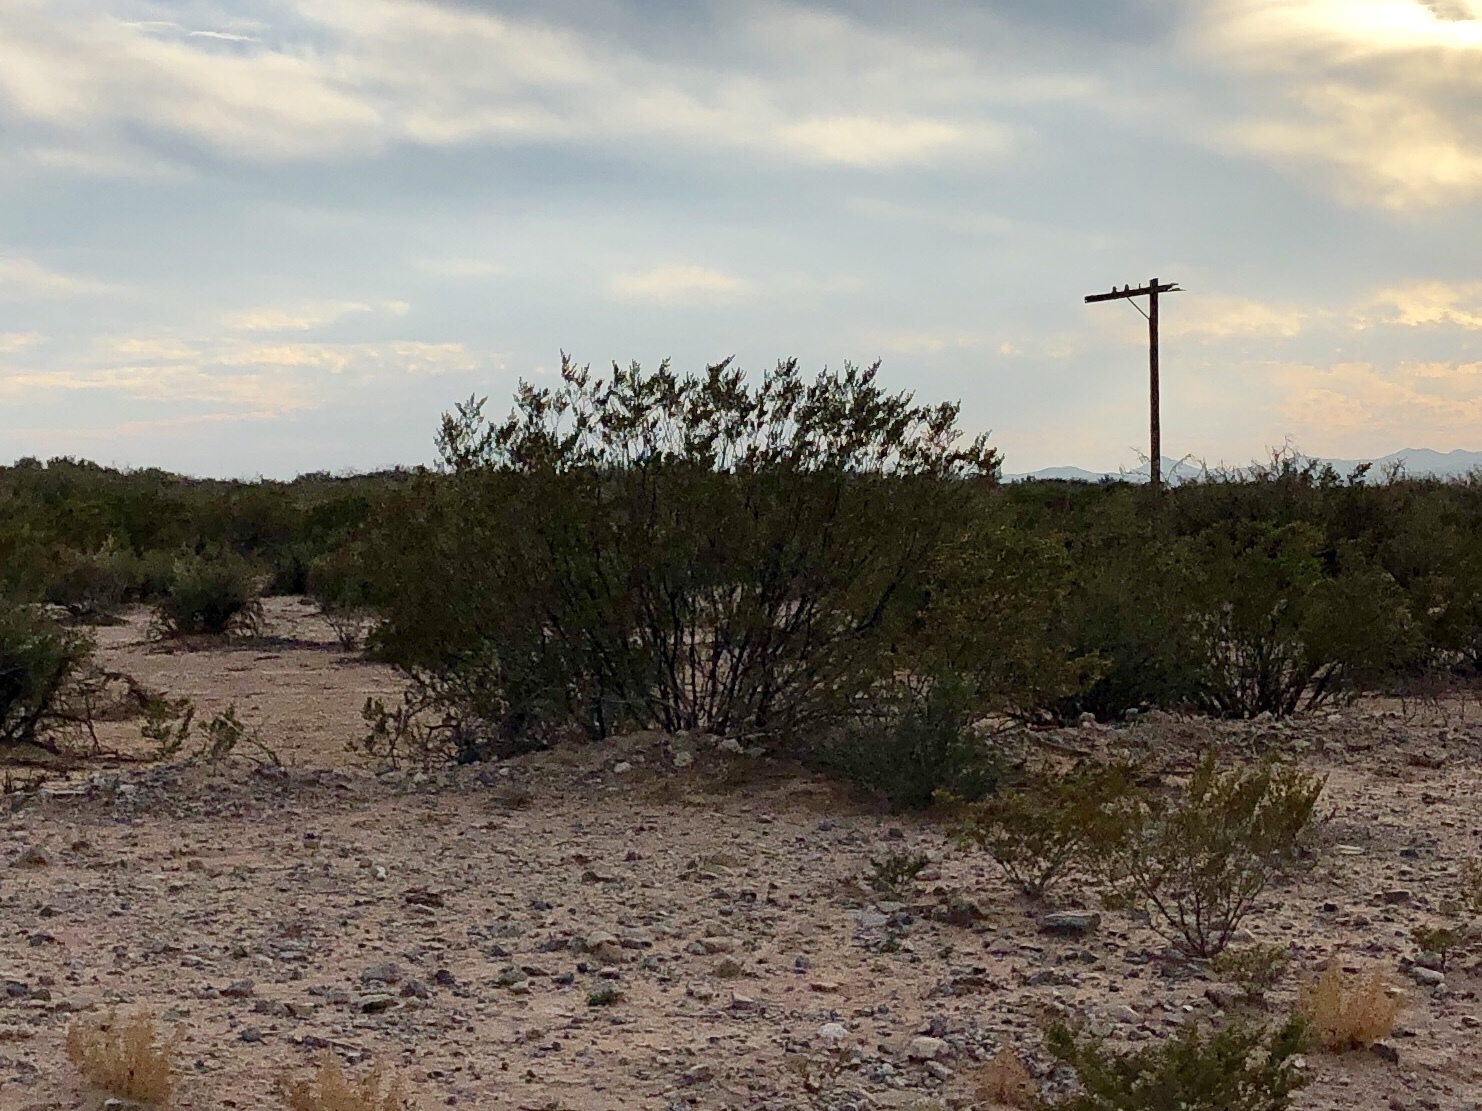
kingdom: Plantae
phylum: Tracheophyta
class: Magnoliopsida
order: Zygophyllales
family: Zygophyllaceae
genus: Larrea
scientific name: Larrea tridentata
